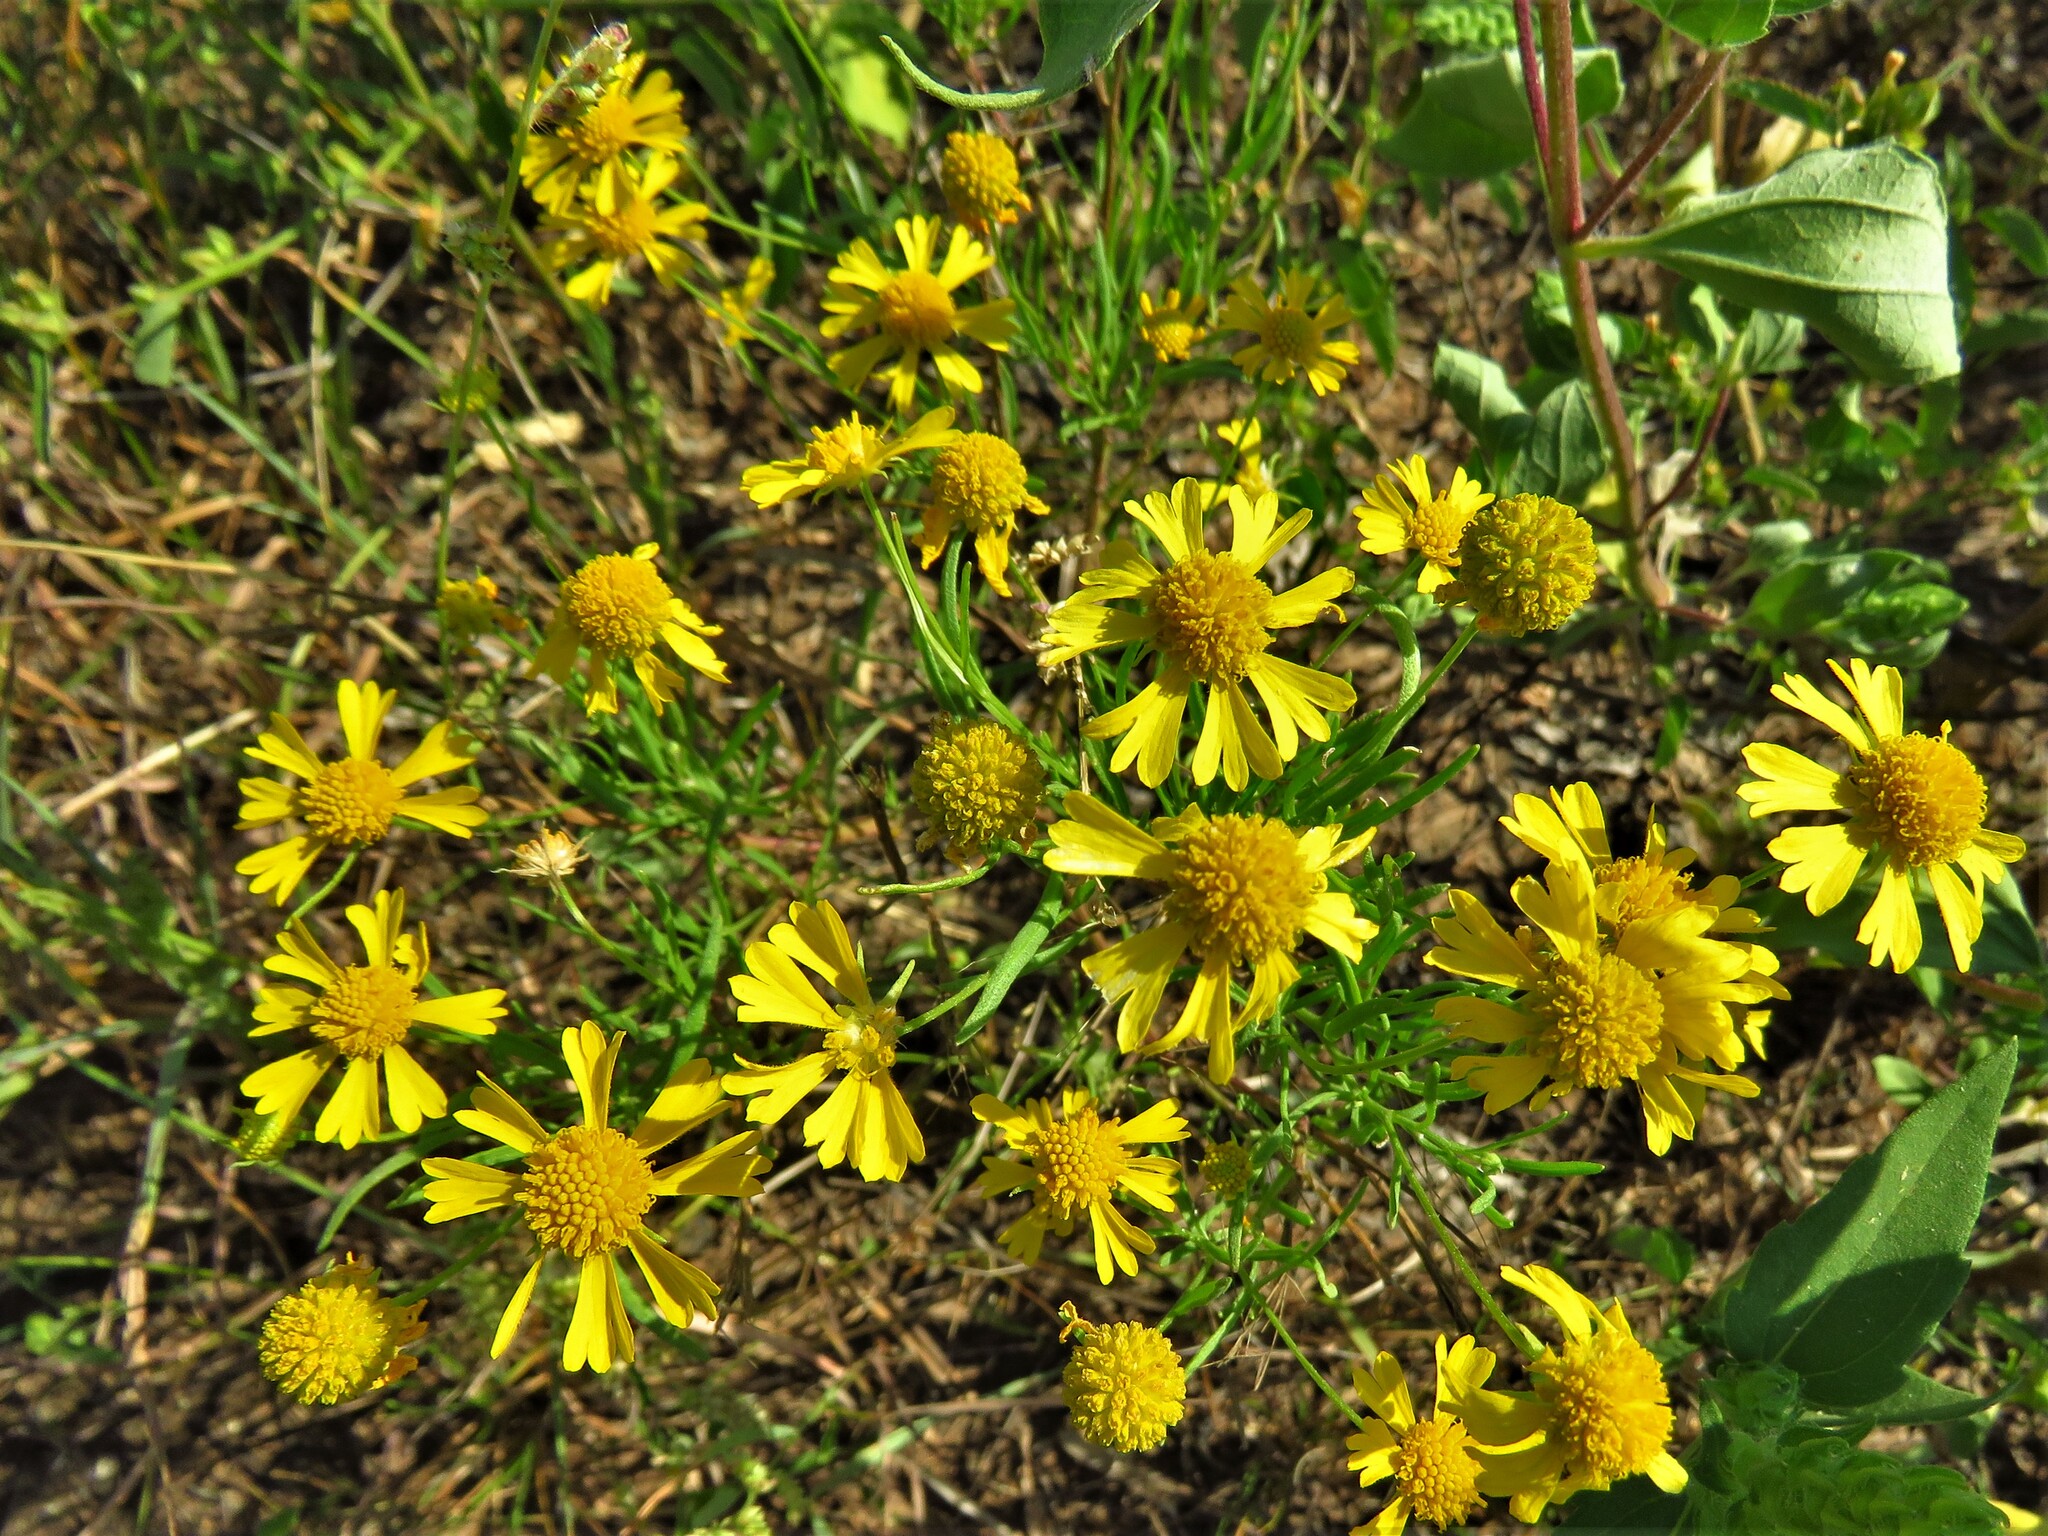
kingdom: Plantae
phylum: Tracheophyta
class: Magnoliopsida
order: Asterales
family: Asteraceae
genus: Helenium
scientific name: Helenium amarum
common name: Bitter sneezeweed
